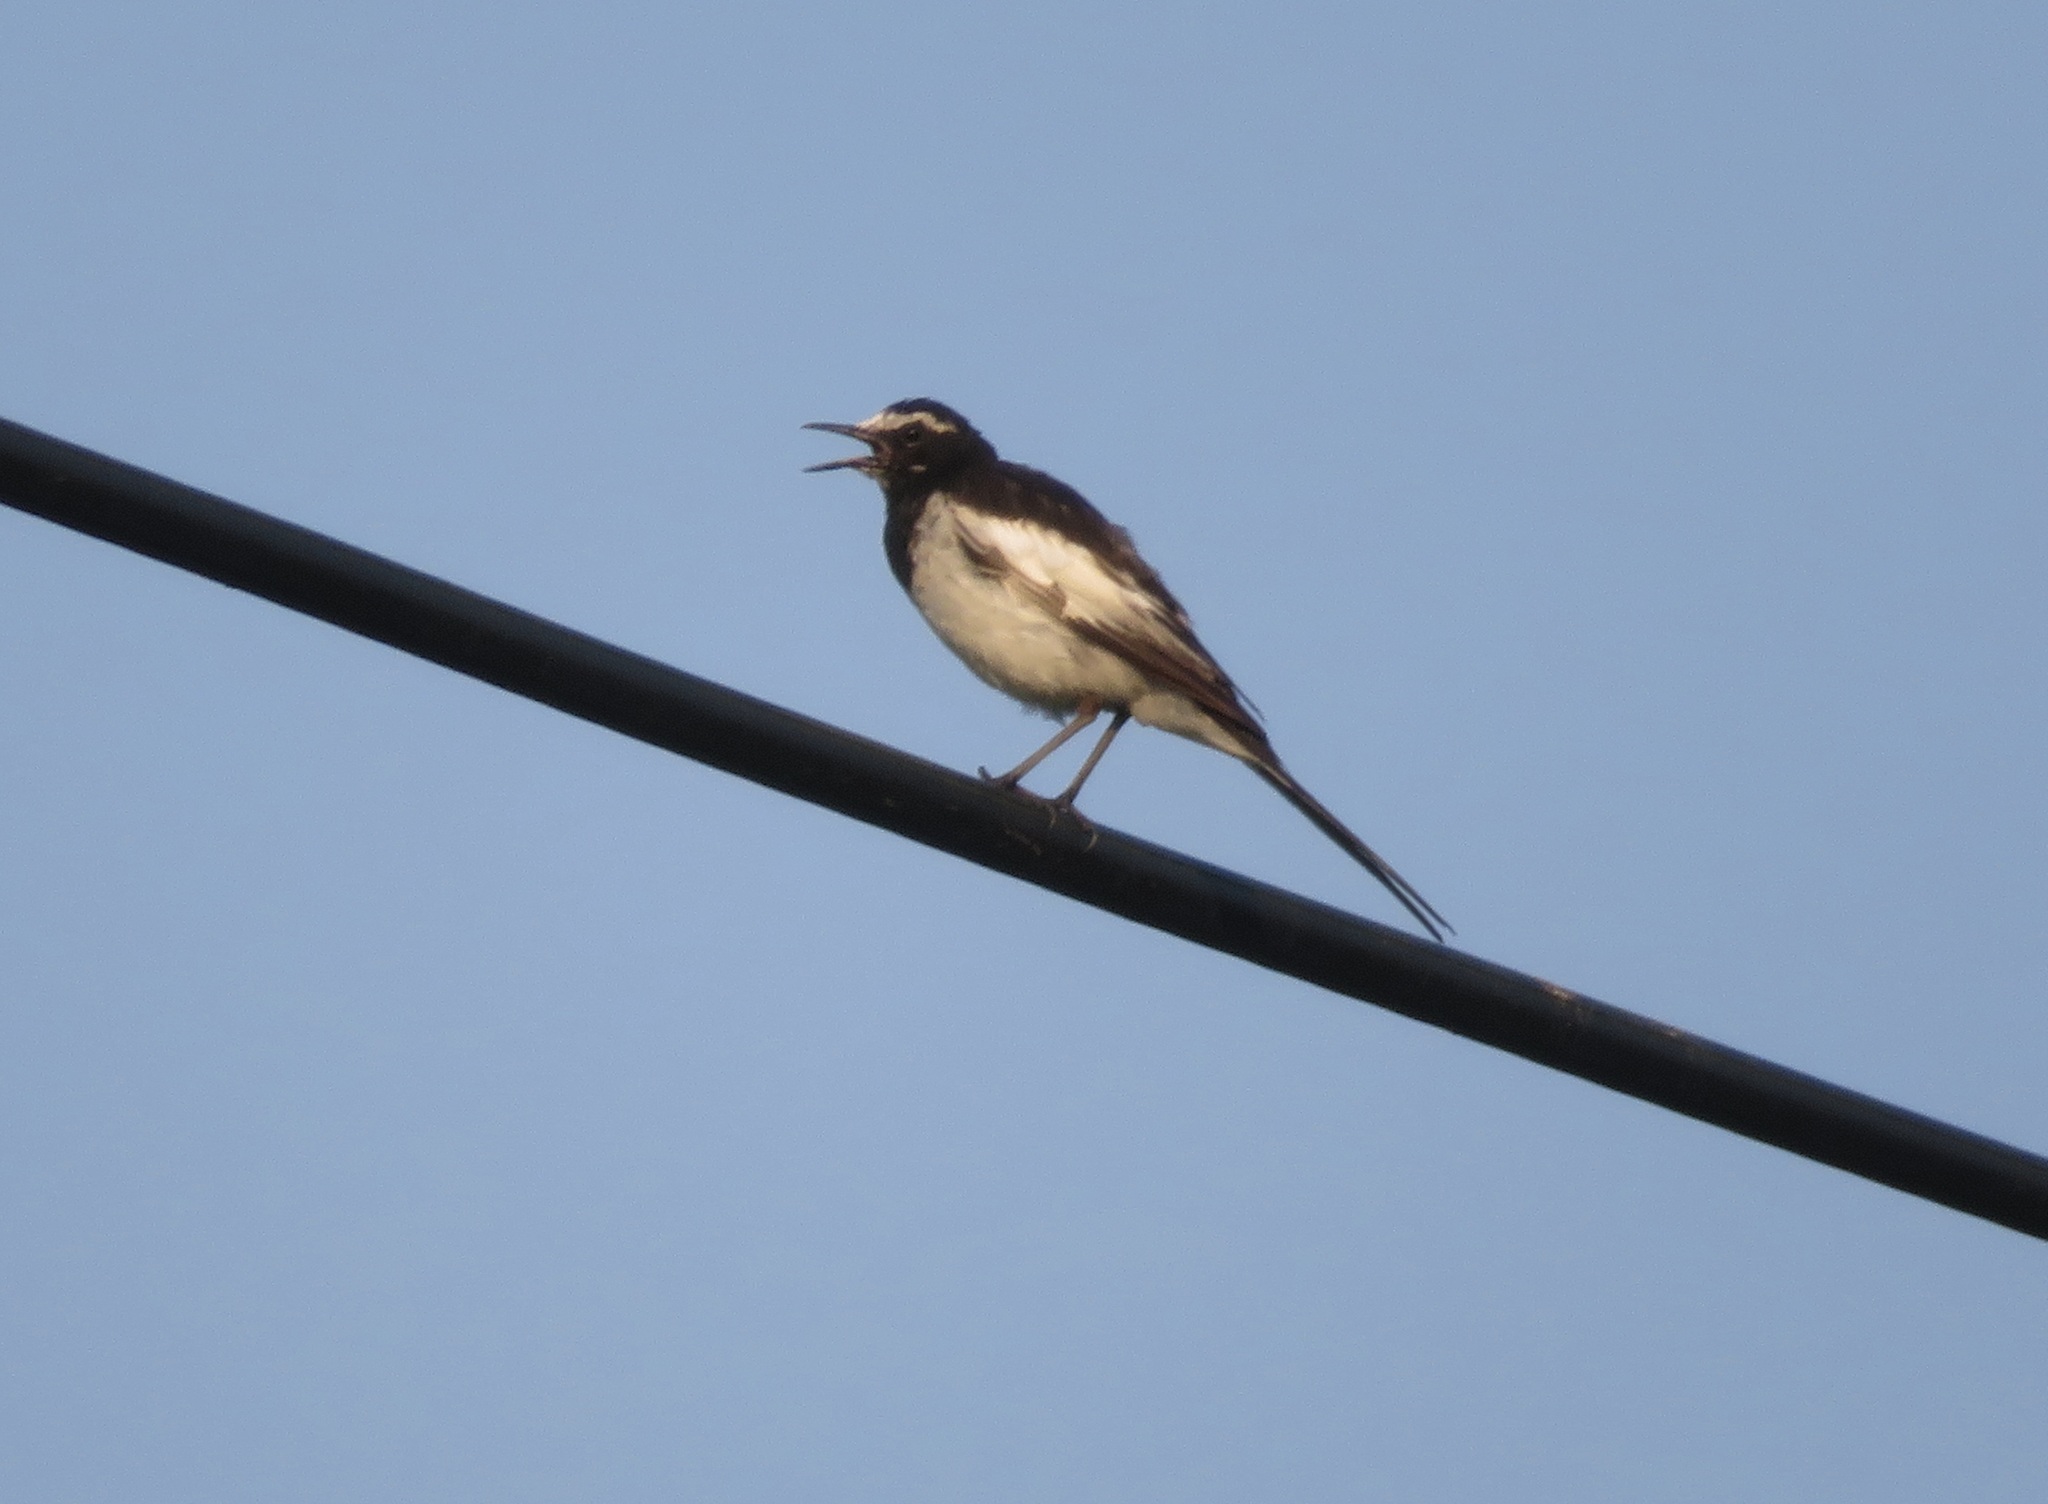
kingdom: Animalia
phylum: Chordata
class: Aves
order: Passeriformes
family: Motacillidae
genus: Motacilla
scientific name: Motacilla grandis
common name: Japanese wagtail
